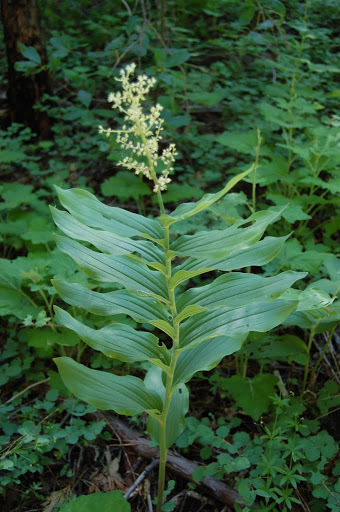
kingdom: Plantae
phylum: Tracheophyta
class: Liliopsida
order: Asparagales
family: Asparagaceae
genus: Maianthemum
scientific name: Maianthemum racemosum
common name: False spikenard
